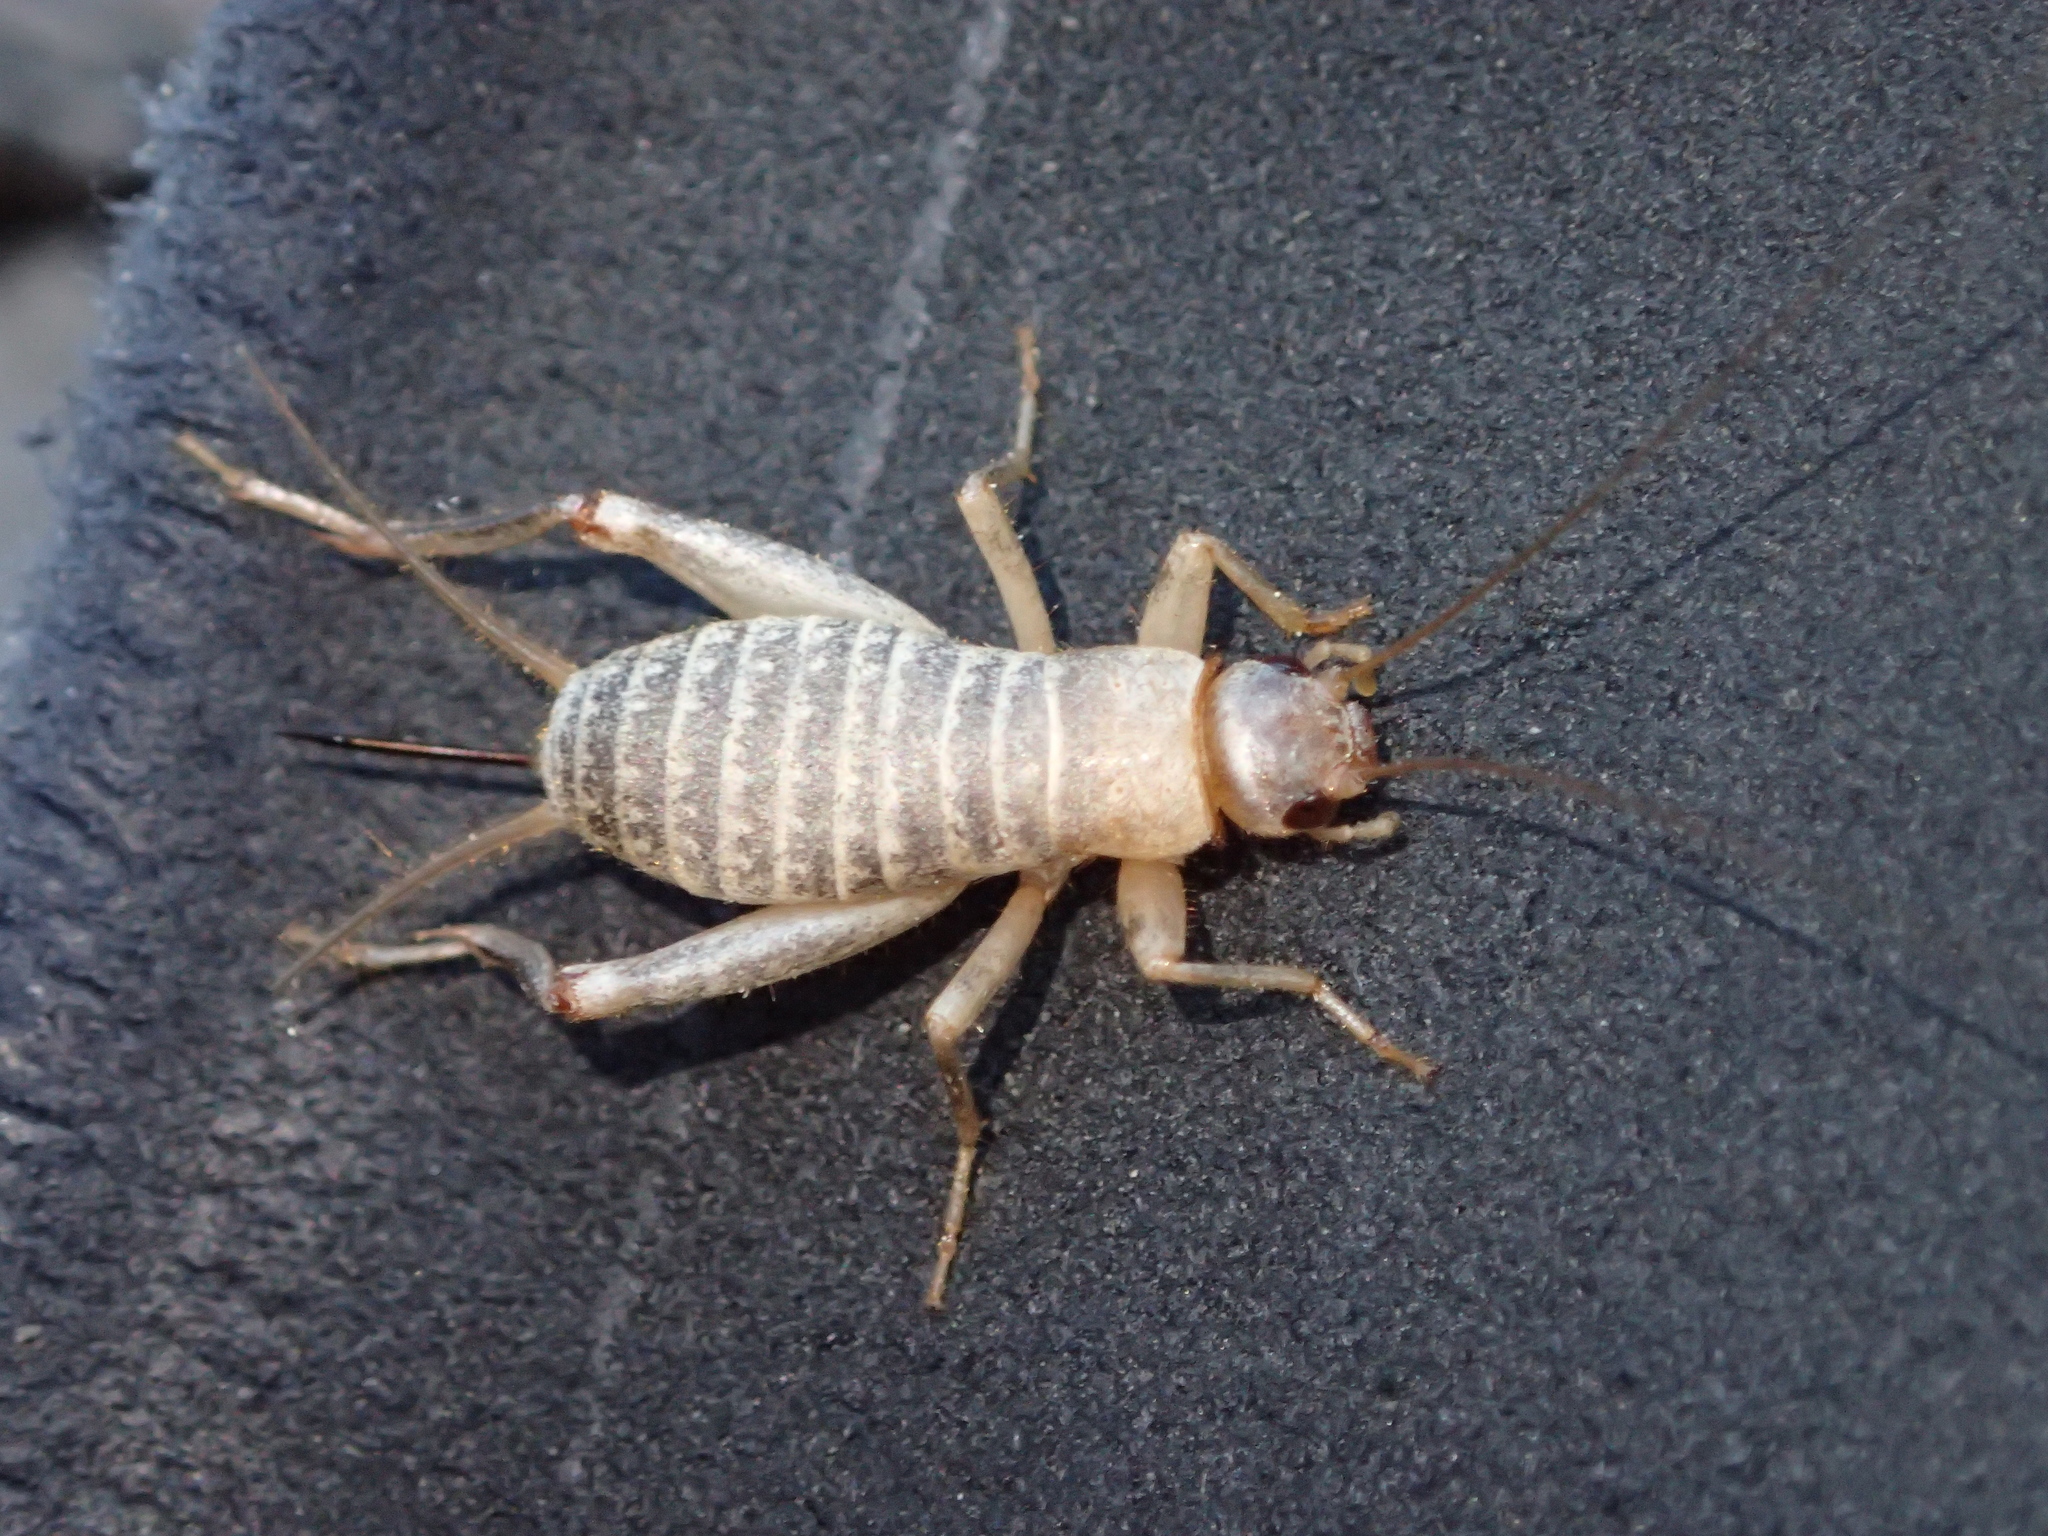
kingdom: Animalia
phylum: Arthropoda
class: Insecta
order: Orthoptera
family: Mogoplistidae
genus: Pseudomogoplistes
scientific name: Pseudomogoplistes squamiger
